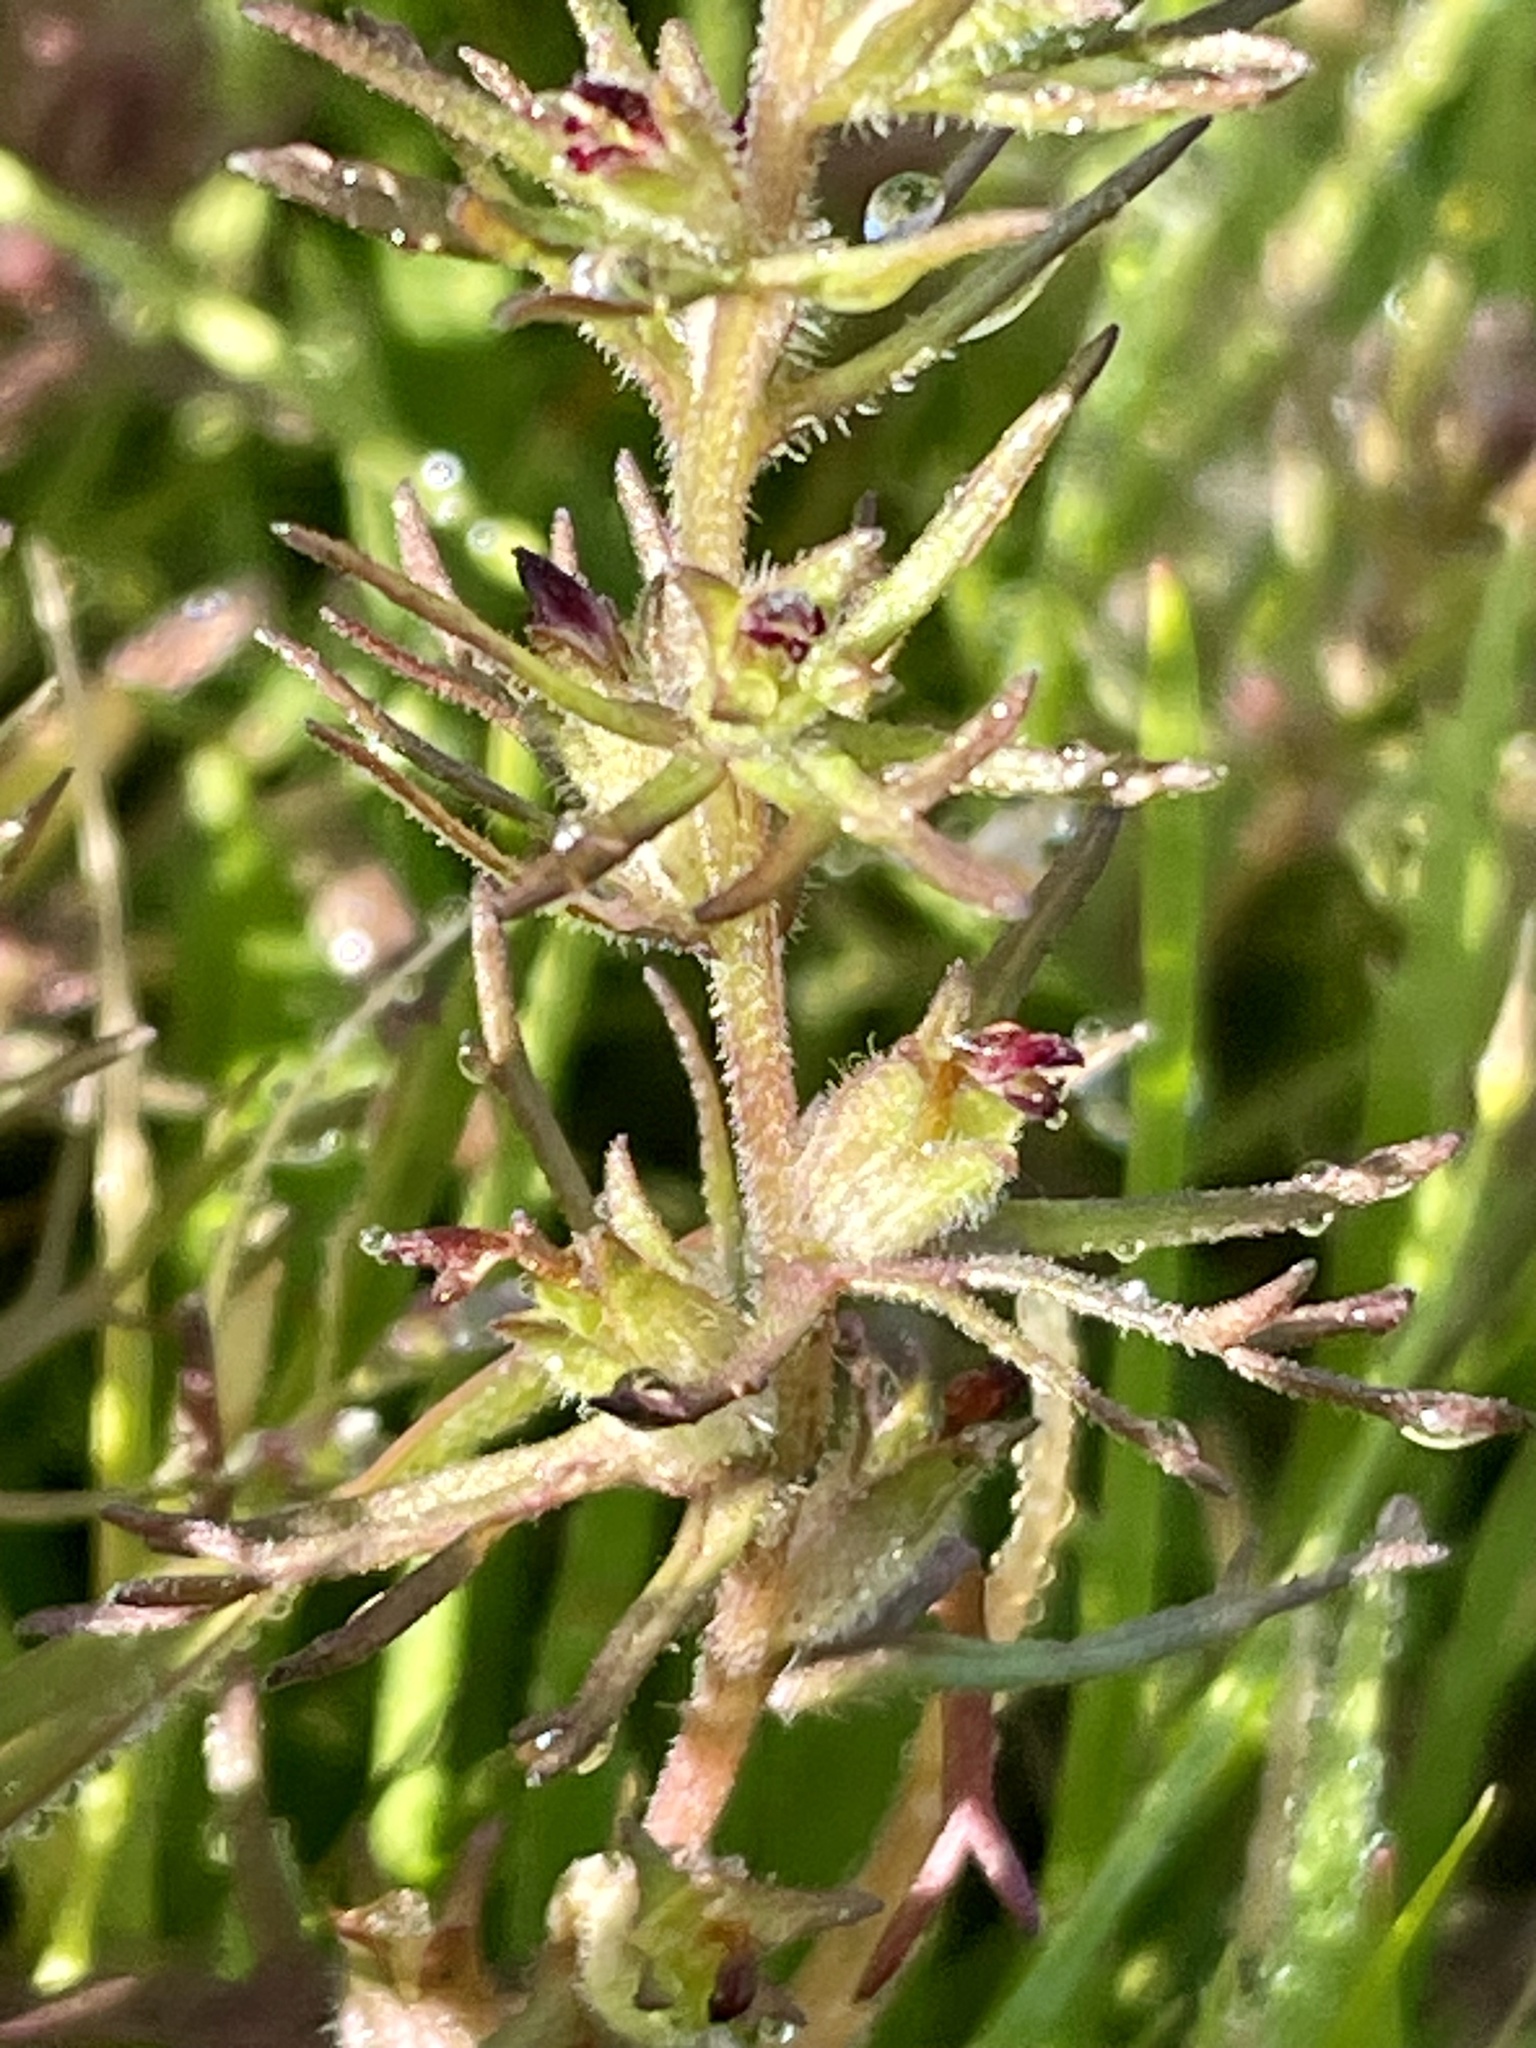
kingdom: Plantae
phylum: Tracheophyta
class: Magnoliopsida
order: Lamiales
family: Orobanchaceae
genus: Triphysaria
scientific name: Triphysaria pusilla
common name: Dwarf false owl-clover
